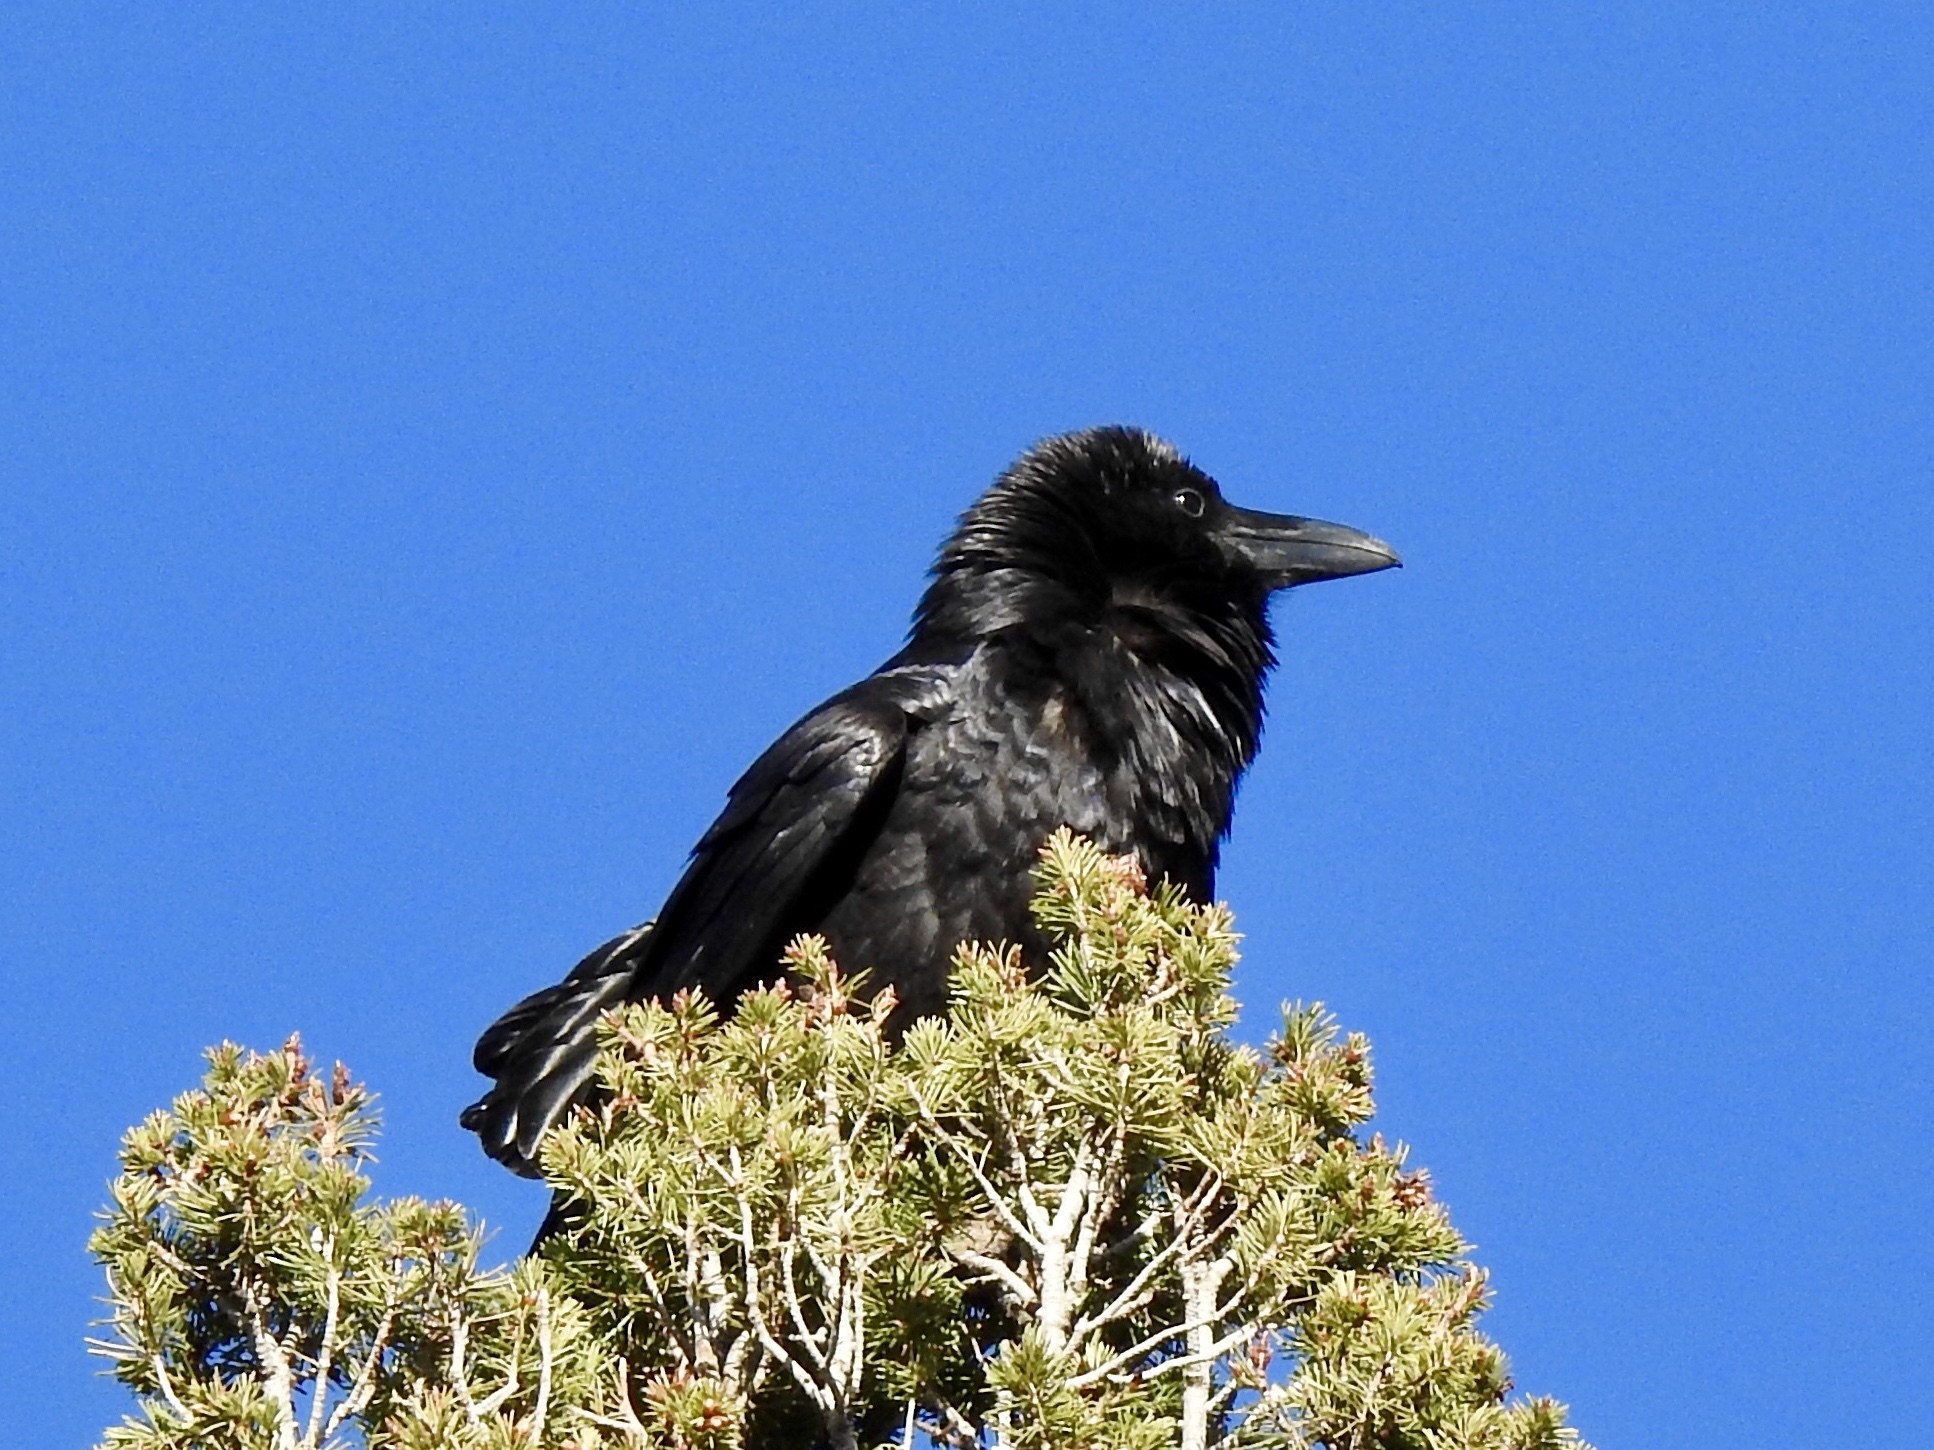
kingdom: Animalia
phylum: Chordata
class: Aves
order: Passeriformes
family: Corvidae
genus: Corvus
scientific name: Corvus corax
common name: Common raven
